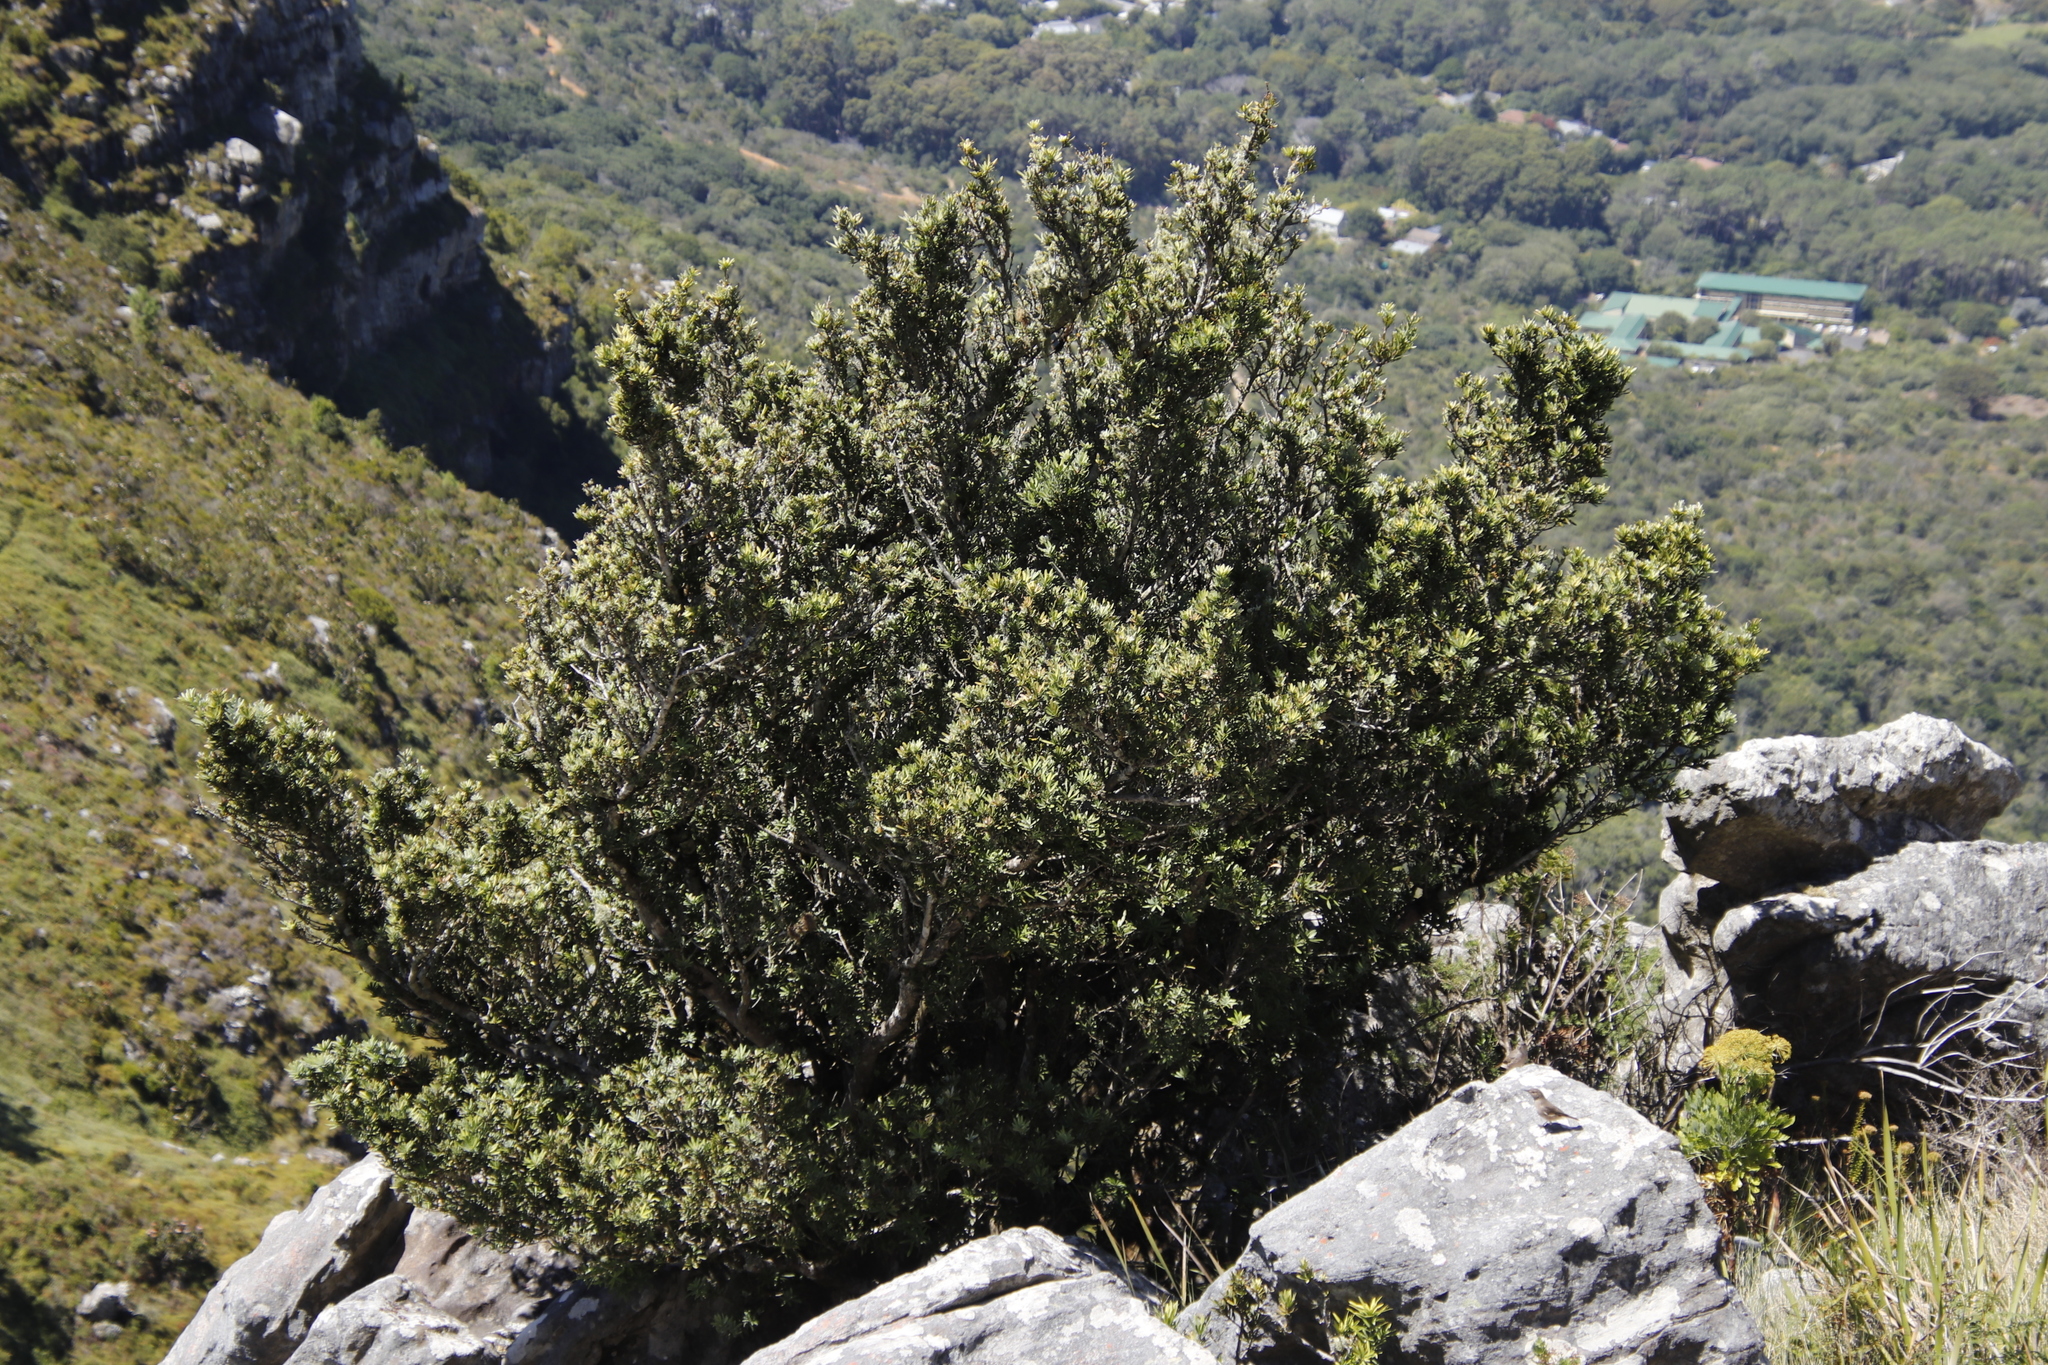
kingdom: Plantae
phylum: Tracheophyta
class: Pinopsida
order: Pinales
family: Podocarpaceae
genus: Podocarpus
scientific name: Podocarpus latifolius
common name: True yellowwood
